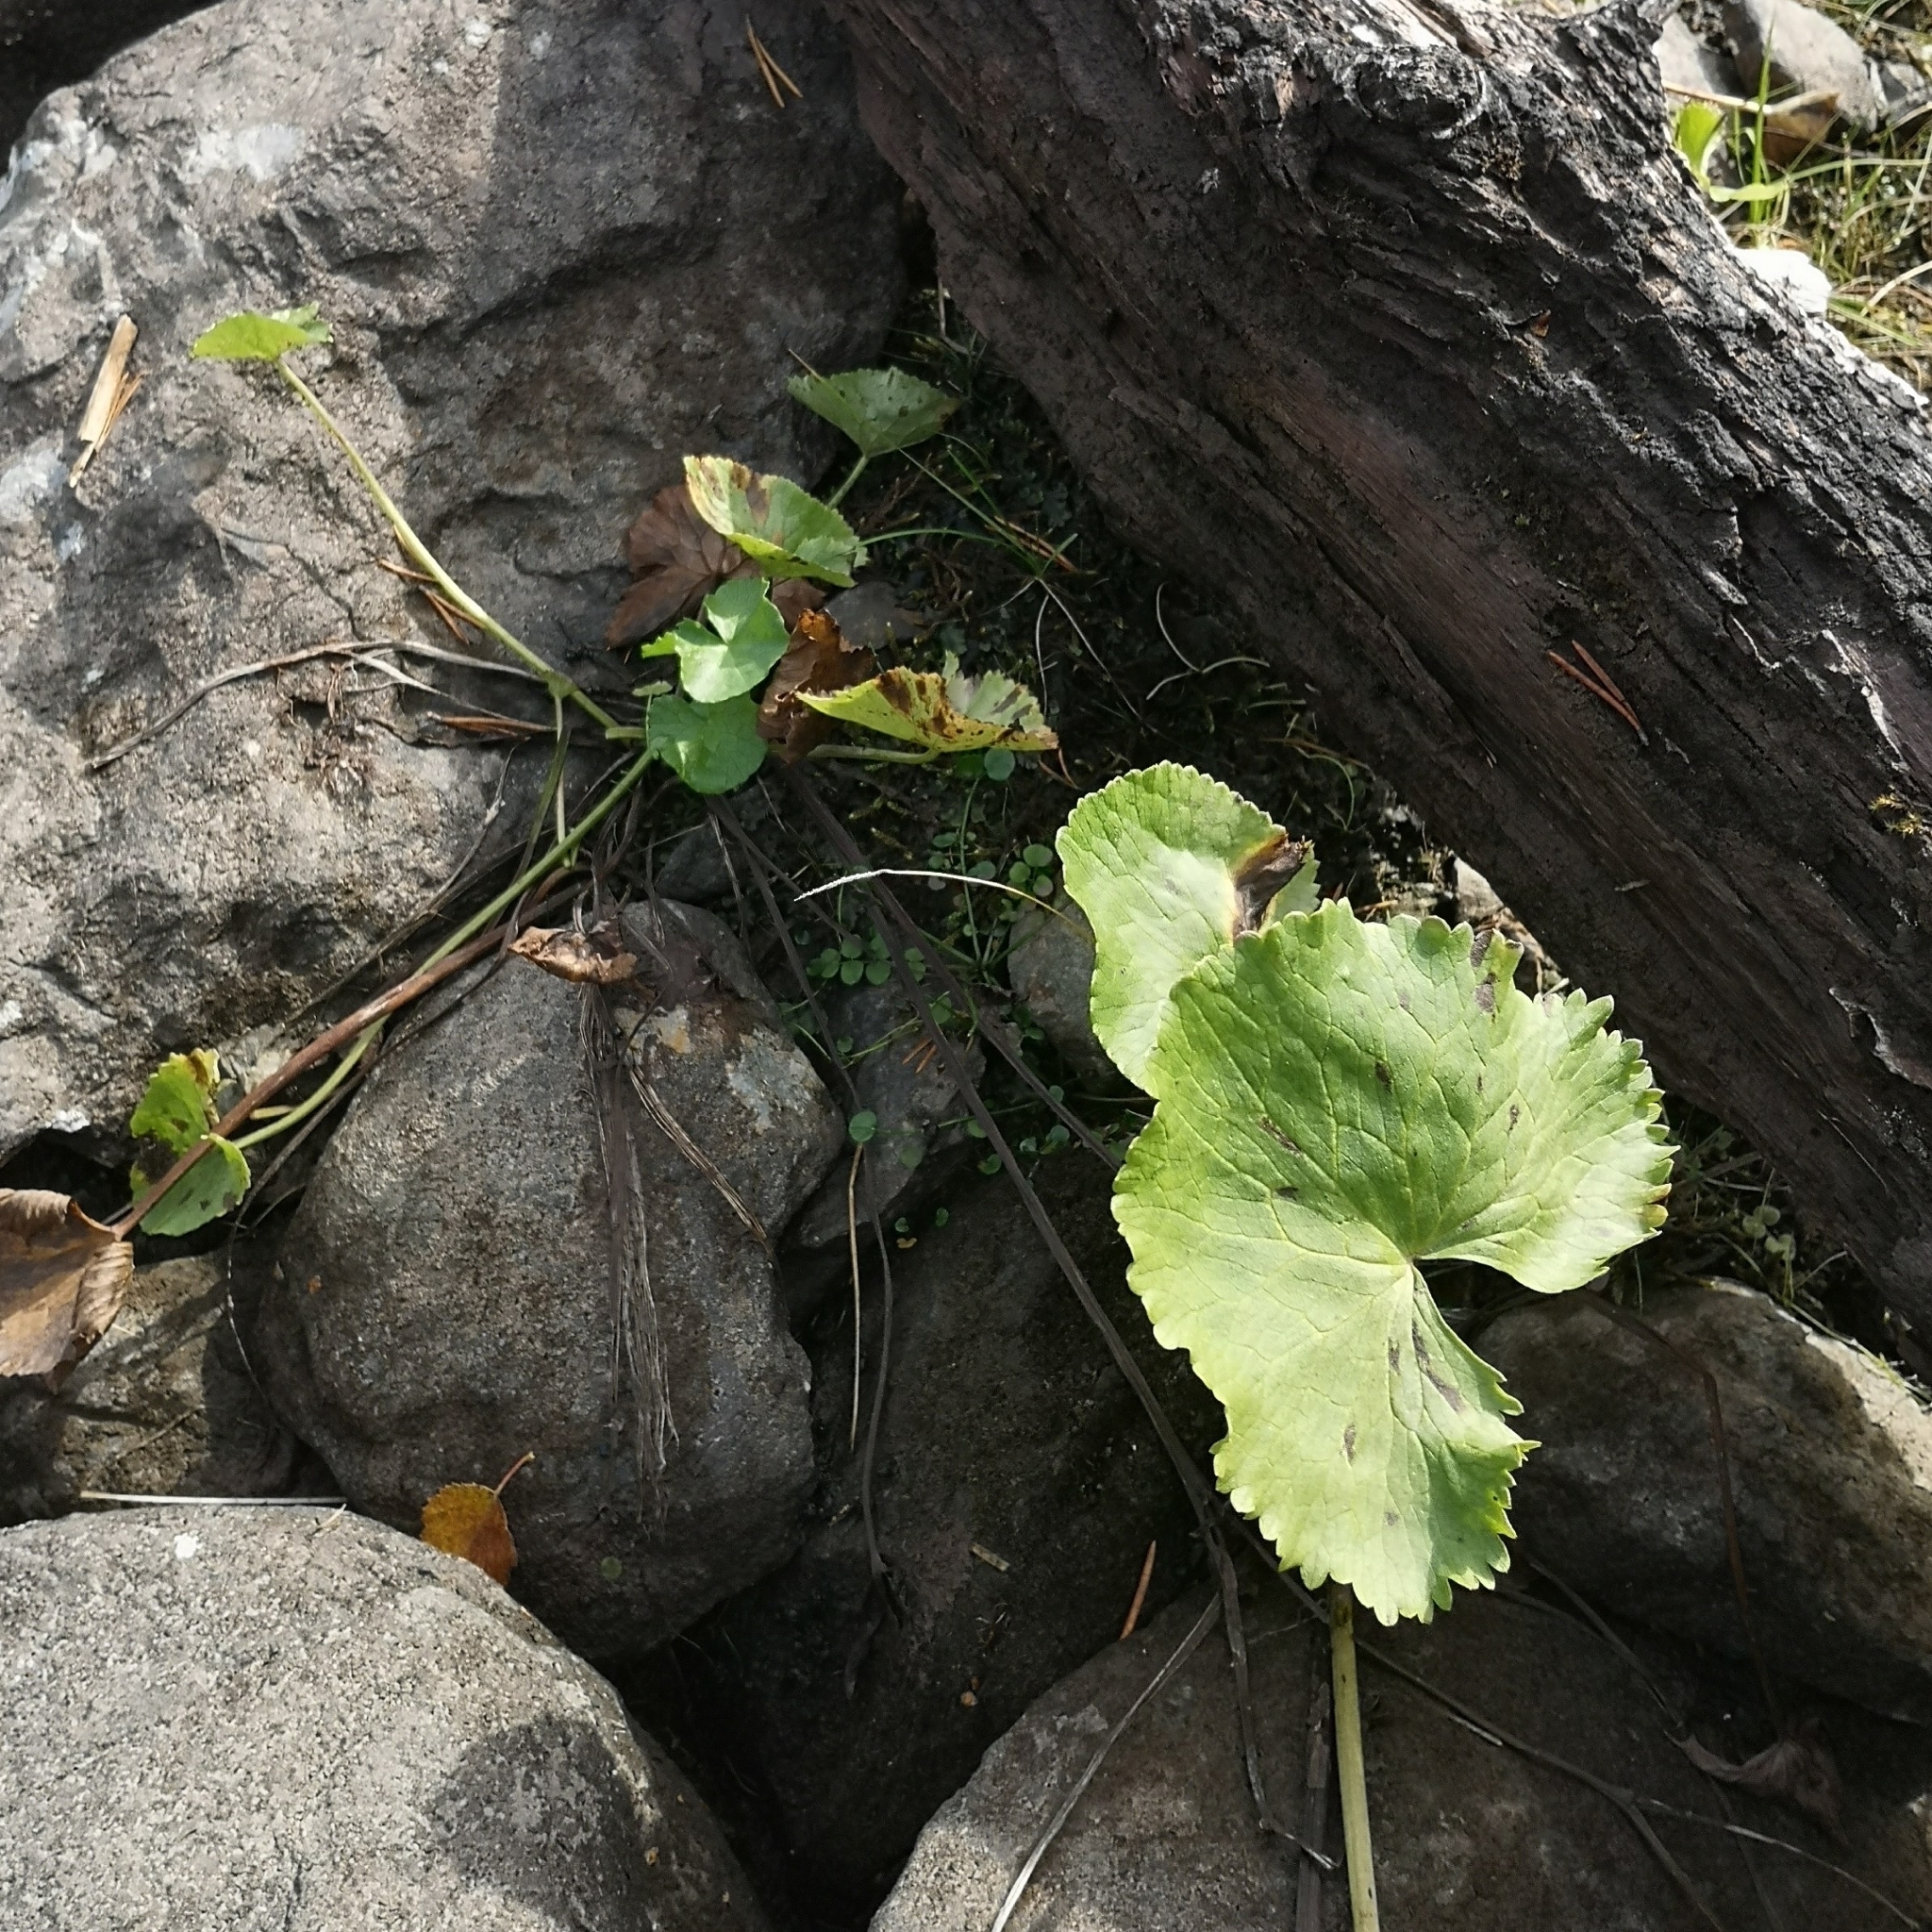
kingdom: Plantae
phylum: Tracheophyta
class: Magnoliopsida
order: Ranunculales
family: Ranunculaceae
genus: Caltha
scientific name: Caltha palustris
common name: Marsh marigold
